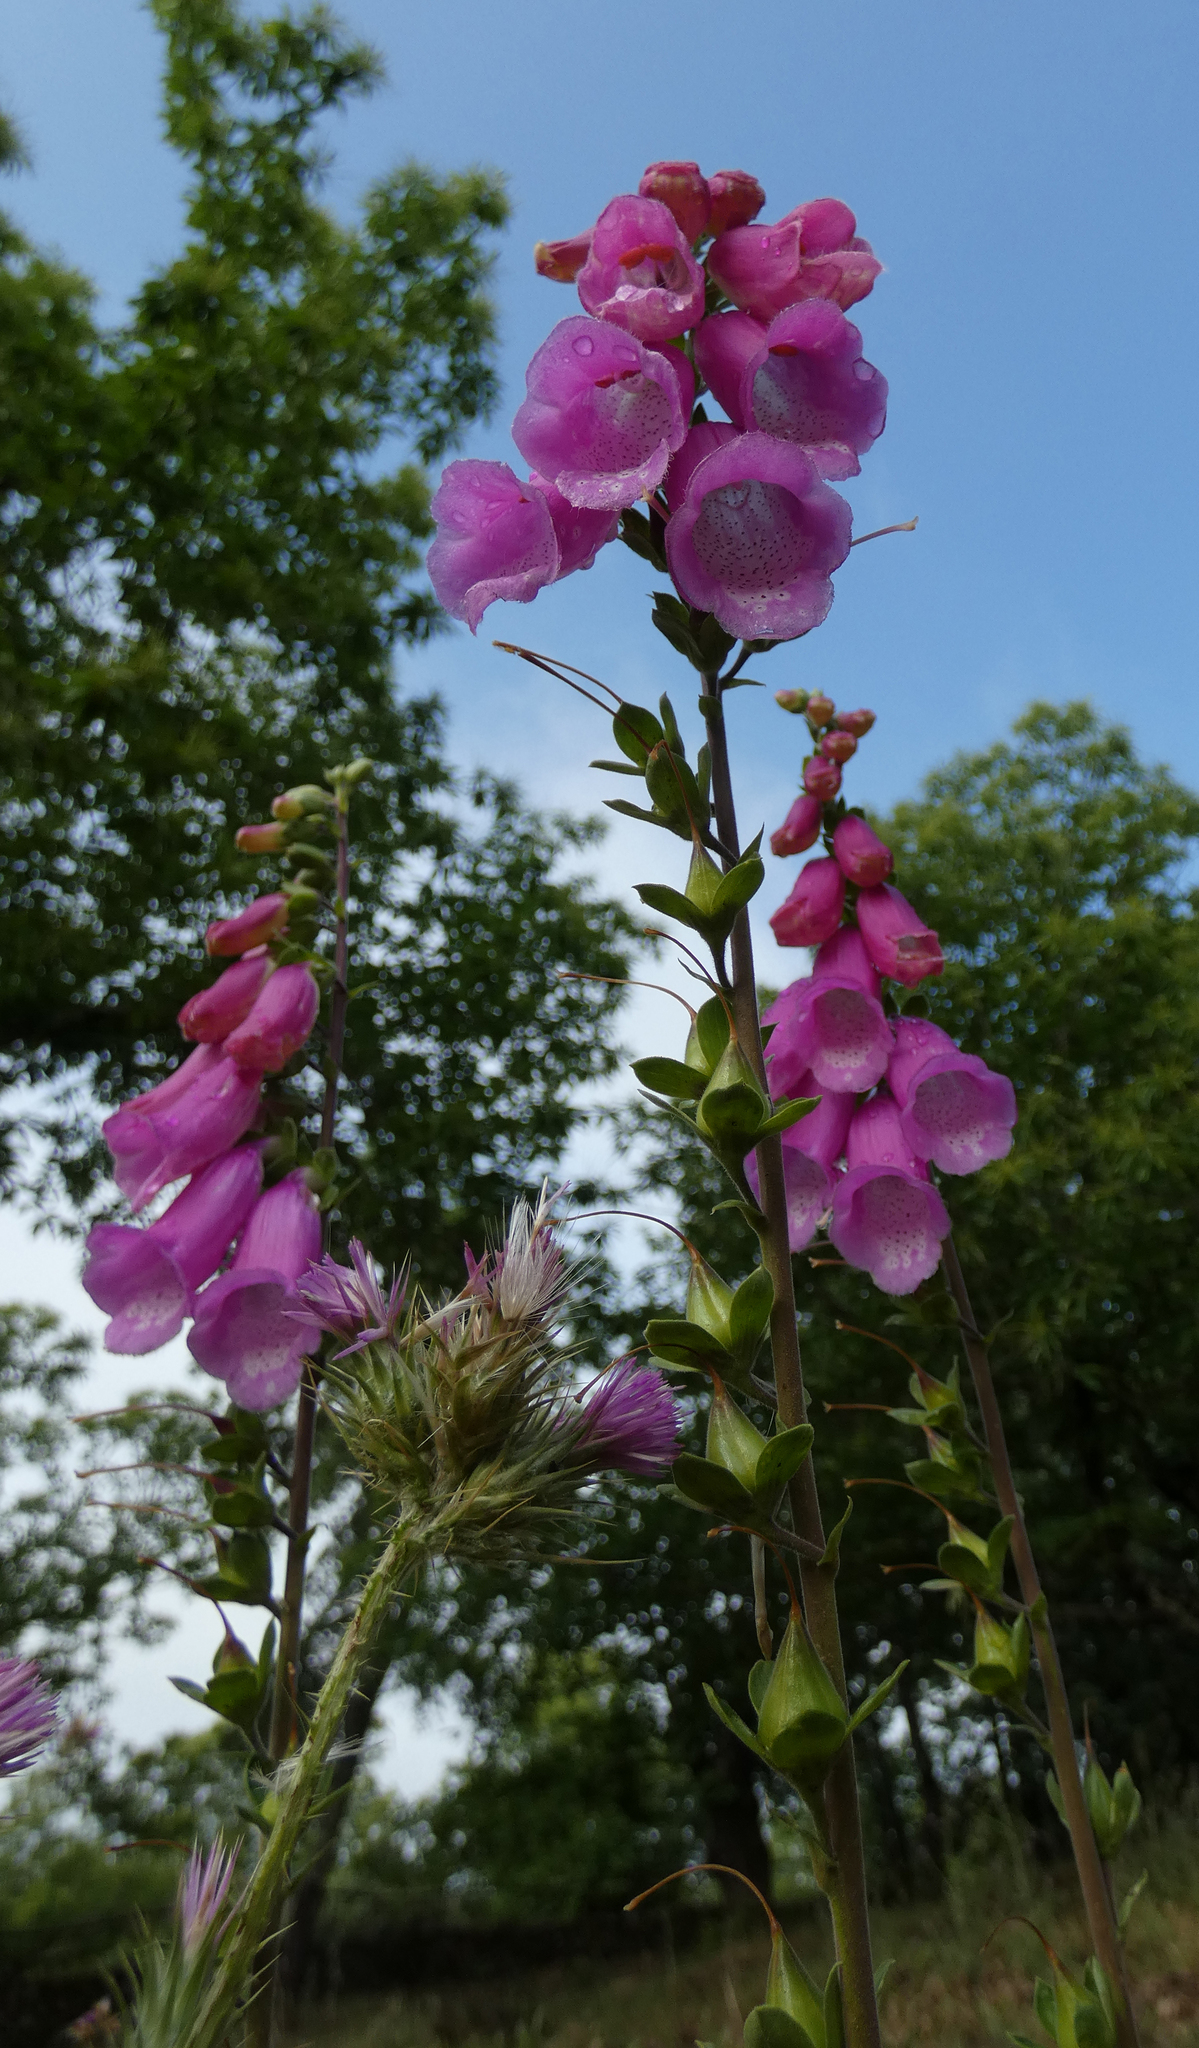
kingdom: Plantae
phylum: Tracheophyta
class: Magnoliopsida
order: Lamiales
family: Plantaginaceae
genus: Digitalis
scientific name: Digitalis purpurea
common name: Foxglove
